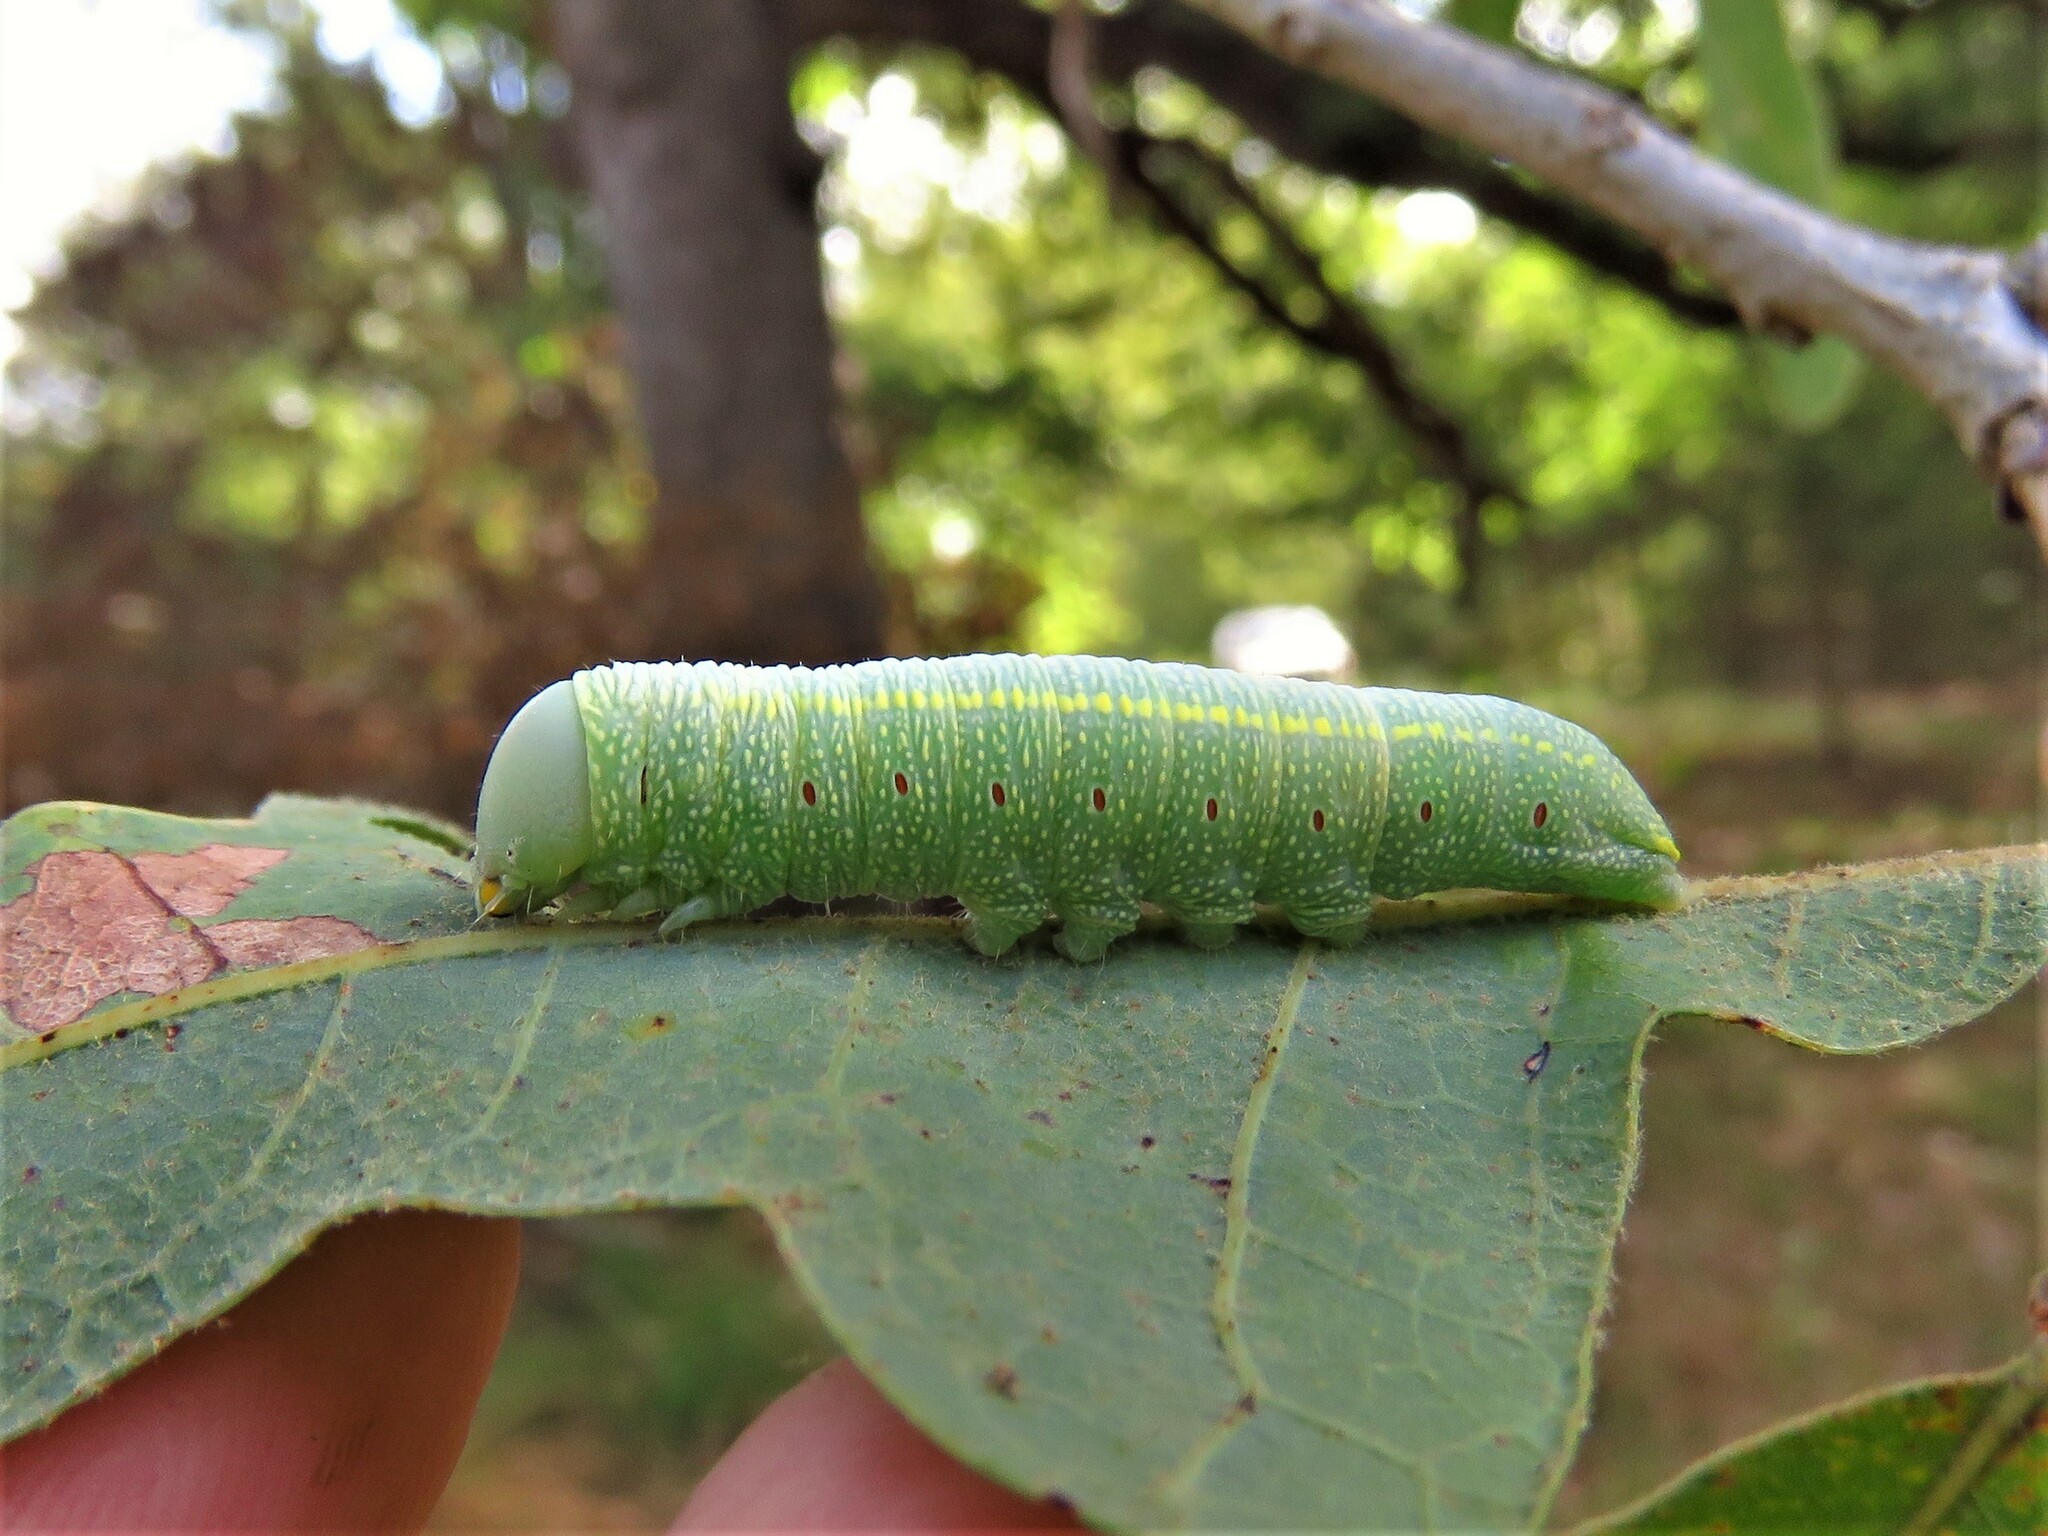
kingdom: Animalia
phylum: Arthropoda
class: Insecta
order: Lepidoptera
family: Notodontidae
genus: Nadata
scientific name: Nadata gibbosa
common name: White-dotted prominent
